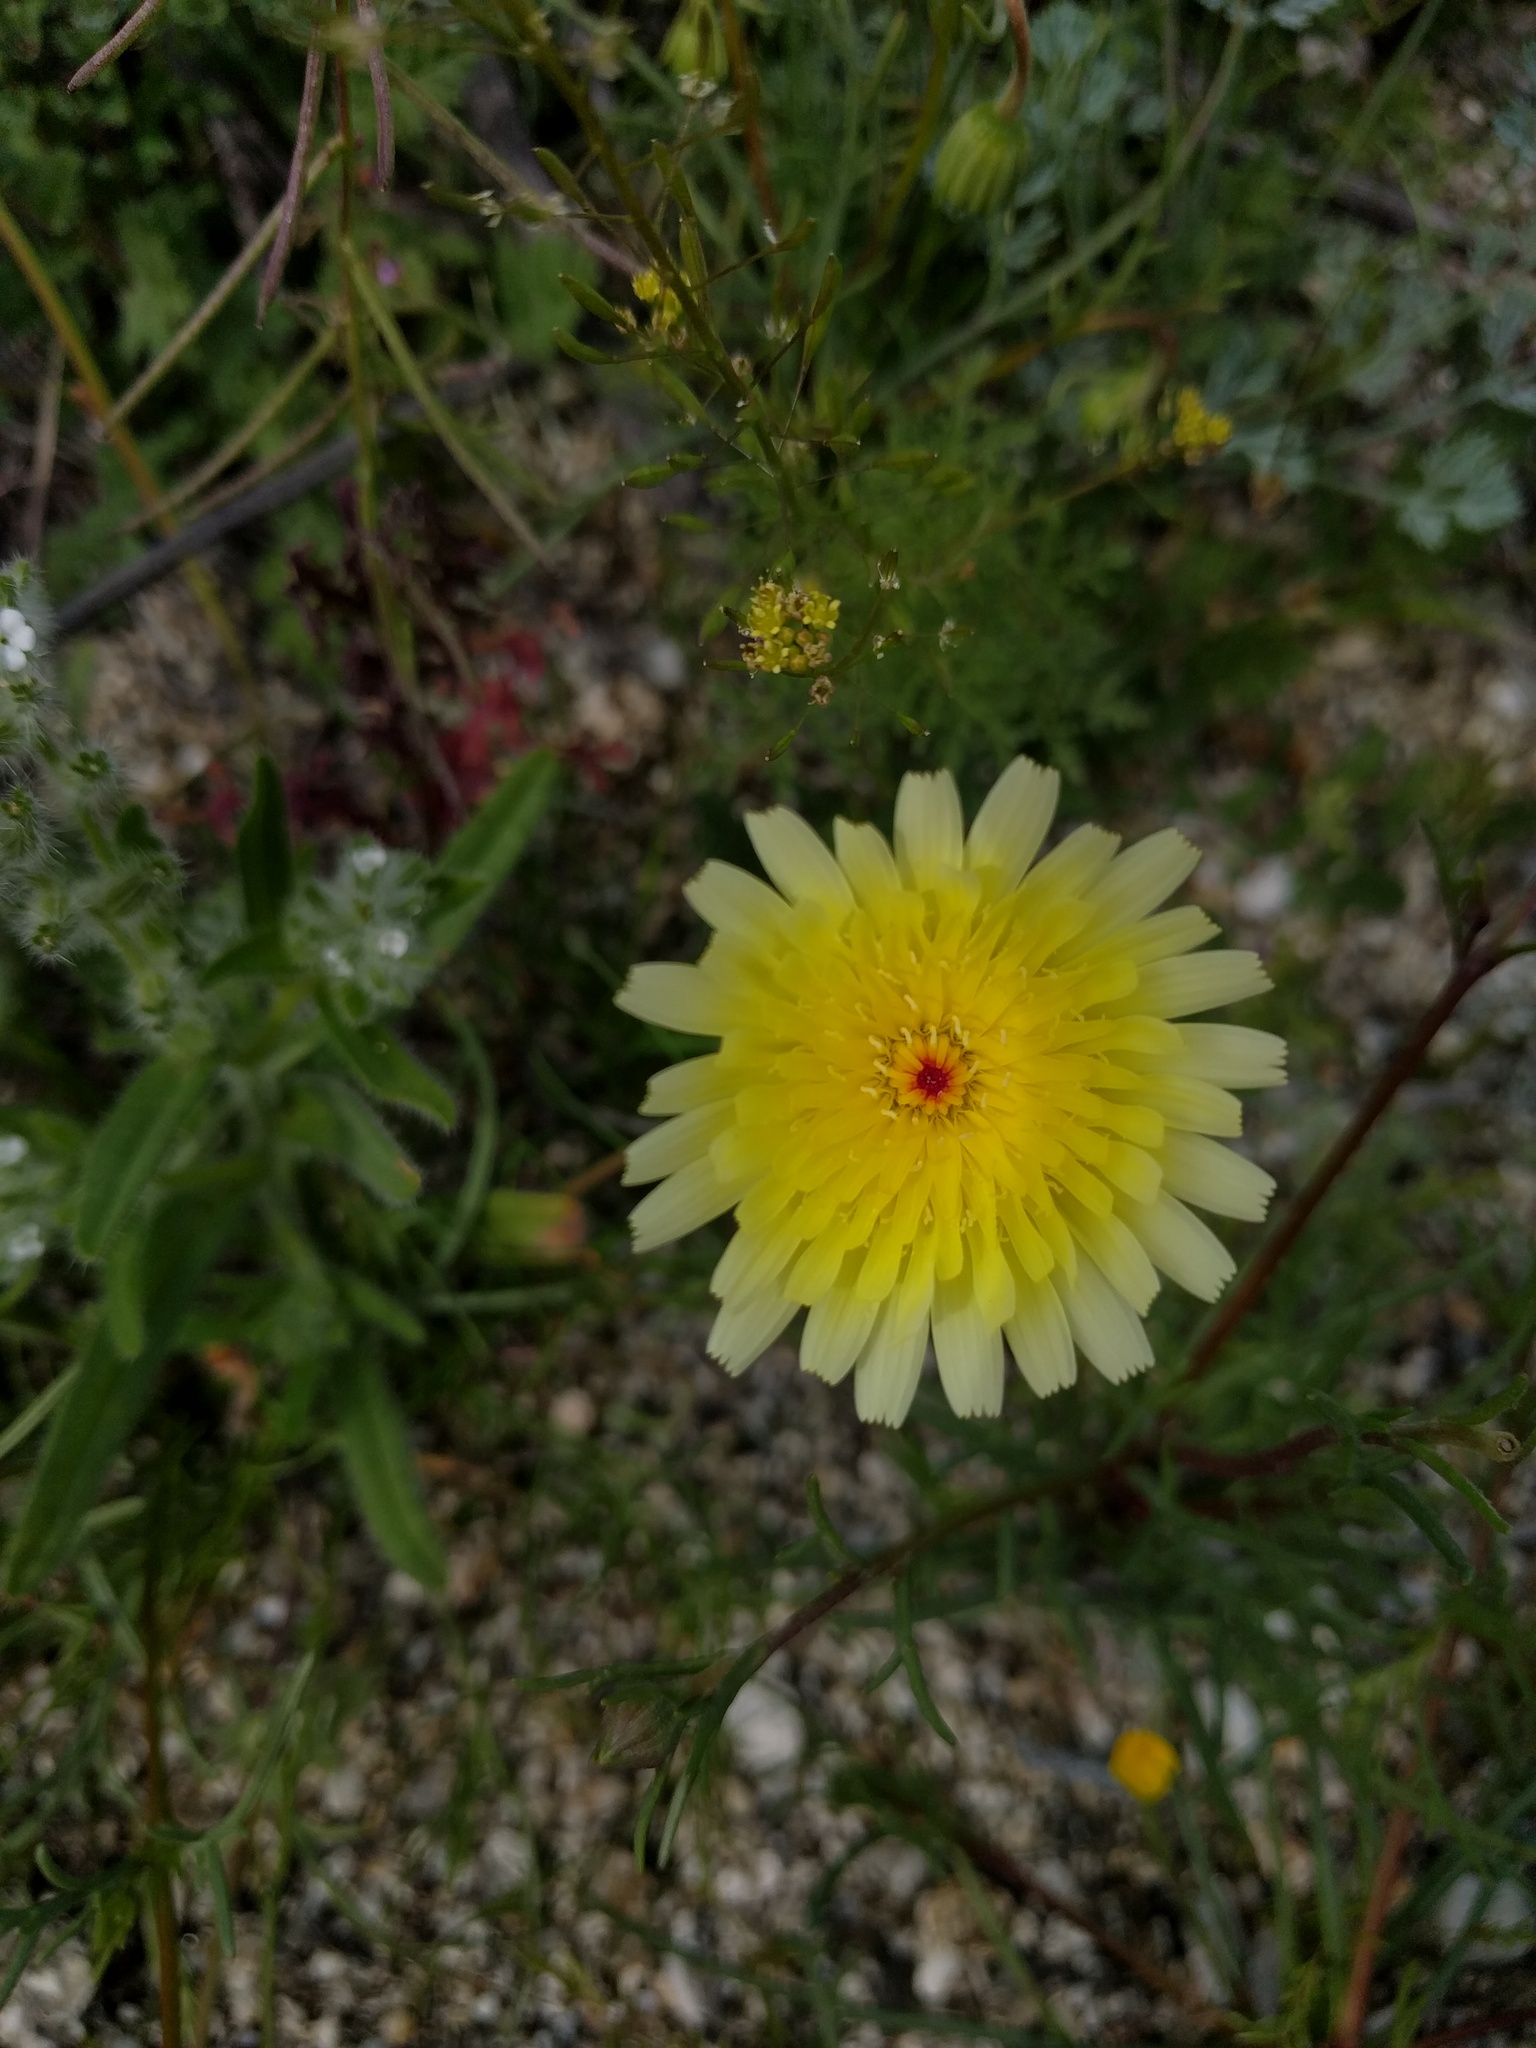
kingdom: Plantae
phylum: Tracheophyta
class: Magnoliopsida
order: Asterales
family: Asteraceae
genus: Malacothrix
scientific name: Malacothrix glabrata
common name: Smooth desert-dandelion
